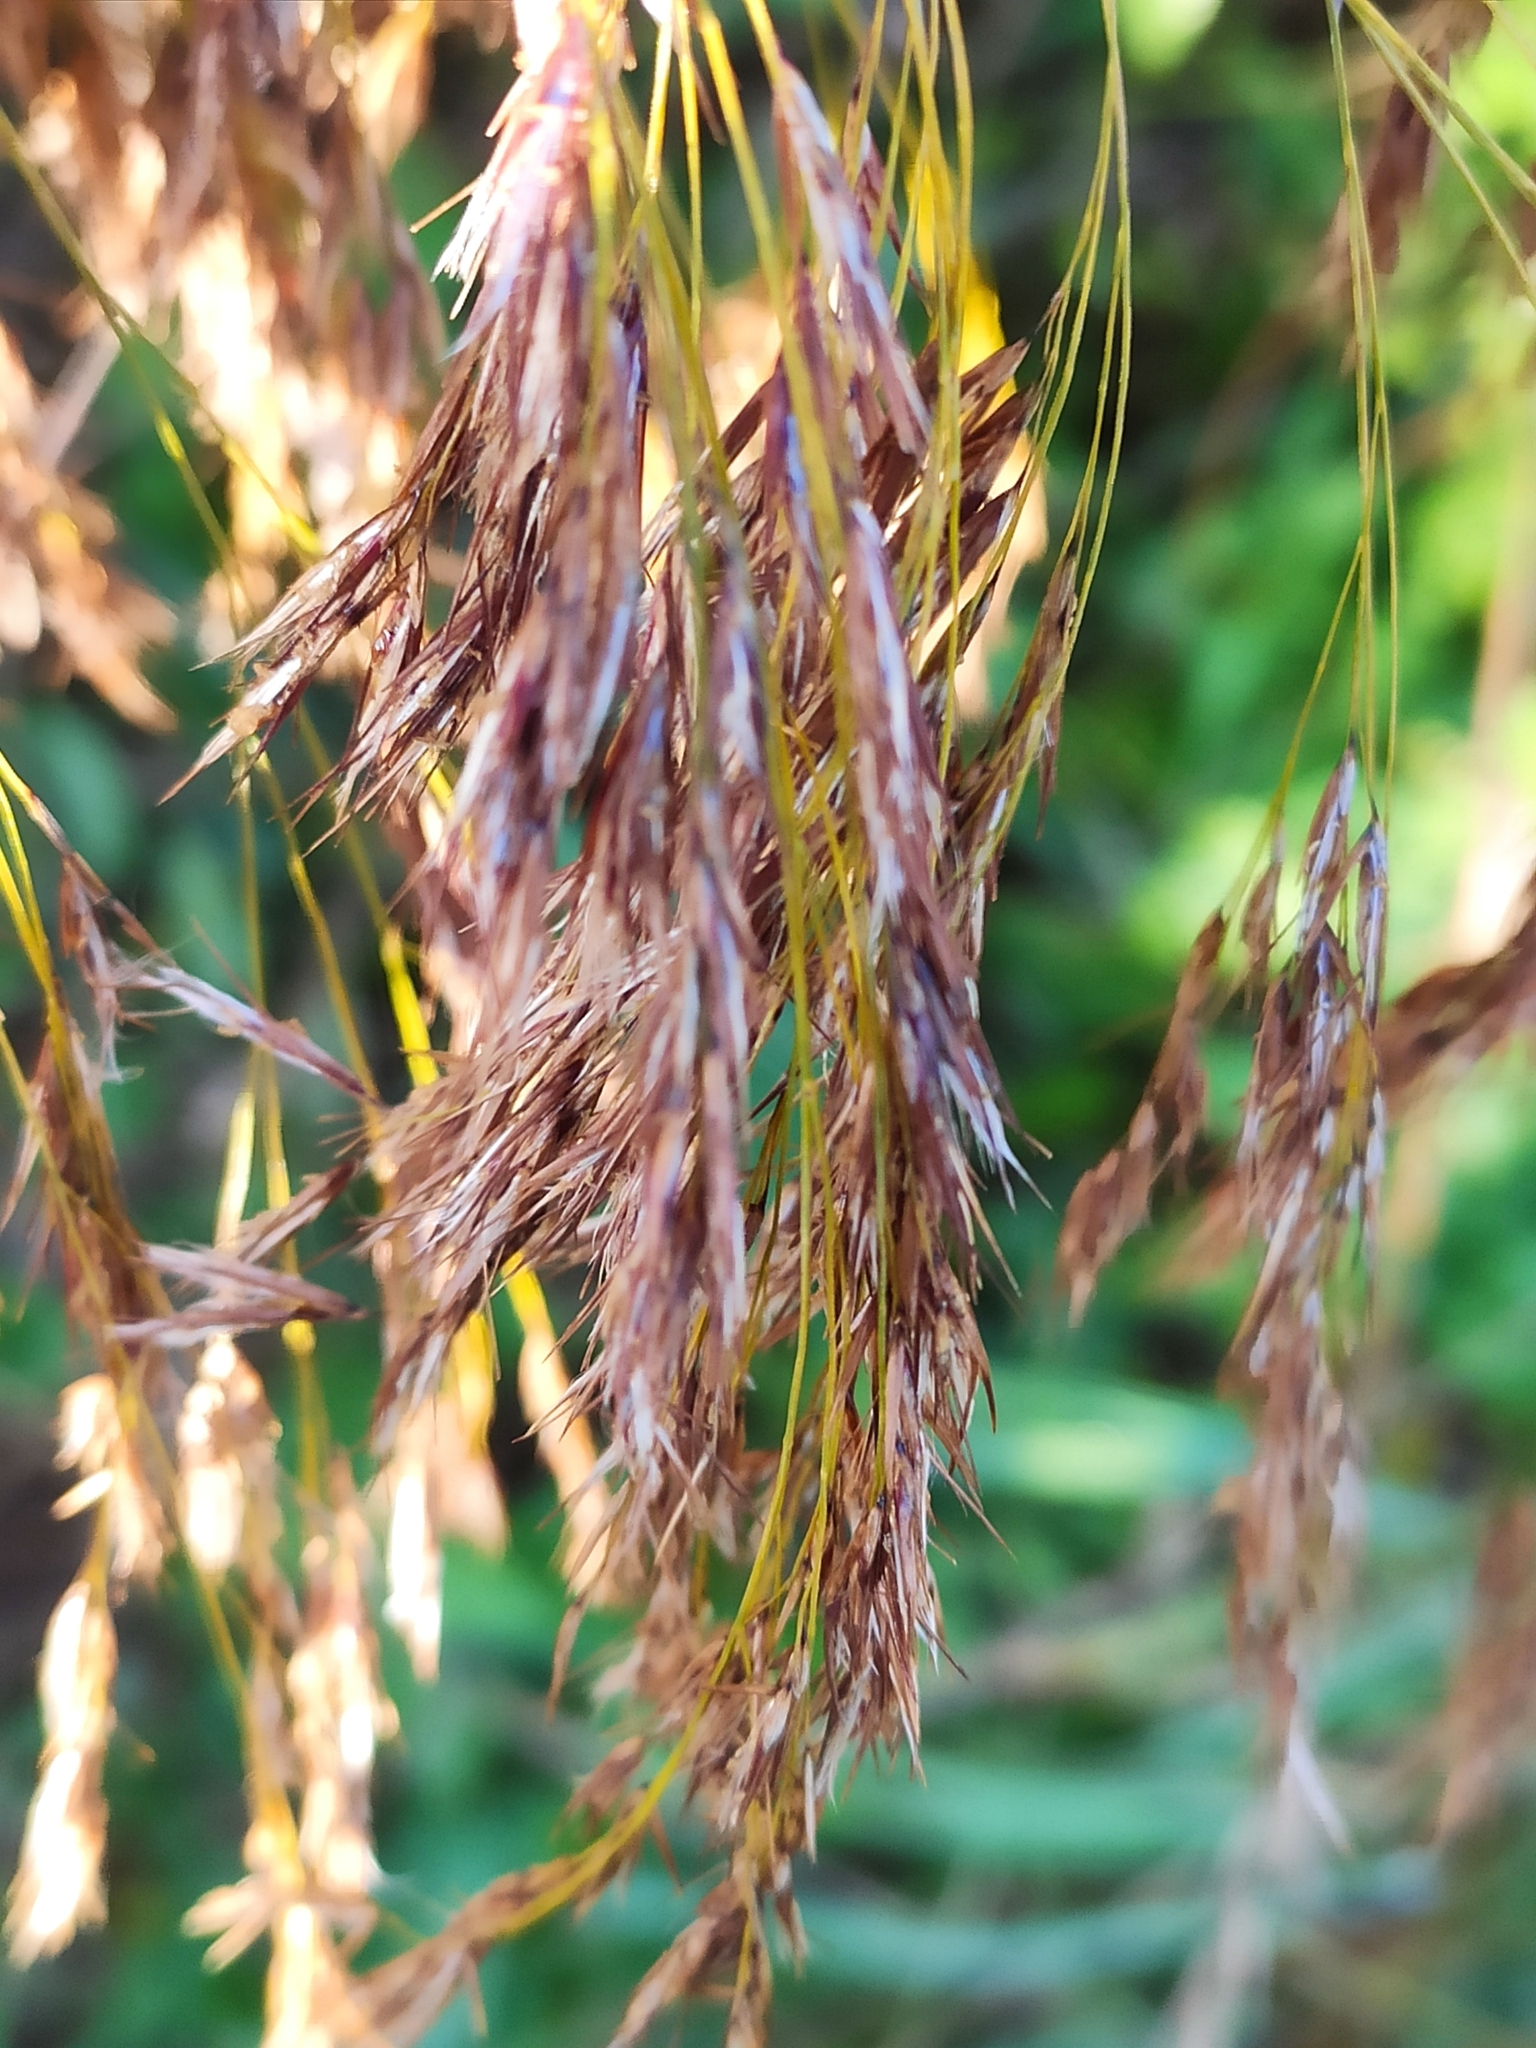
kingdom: Plantae
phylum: Tracheophyta
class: Liliopsida
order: Poales
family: Poaceae
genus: Phragmites
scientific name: Phragmites australis
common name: Common reed
